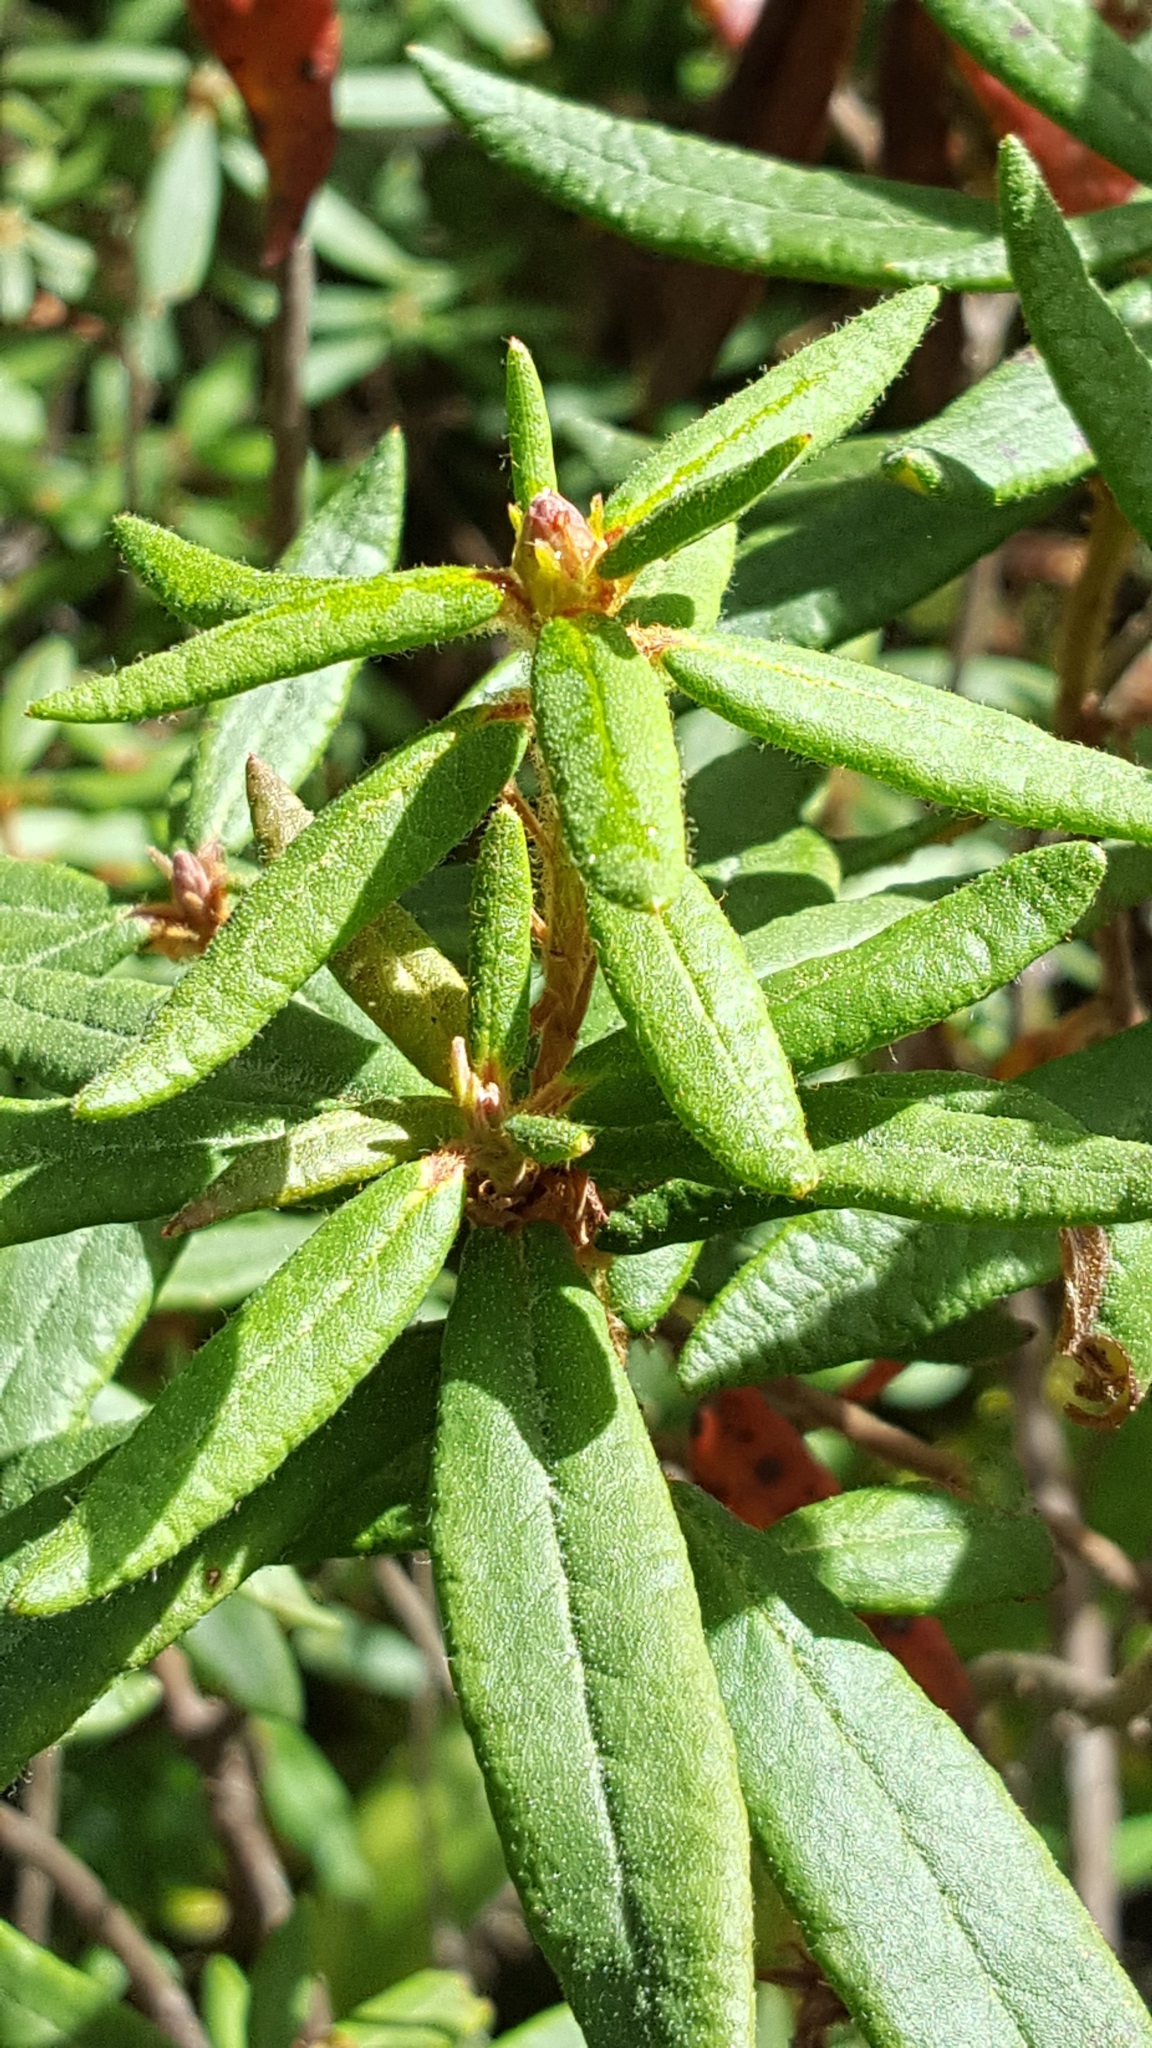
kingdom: Plantae
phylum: Tracheophyta
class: Magnoliopsida
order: Ericales
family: Ericaceae
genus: Rhododendron
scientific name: Rhododendron groenlandicum
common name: Bog labrador tea
